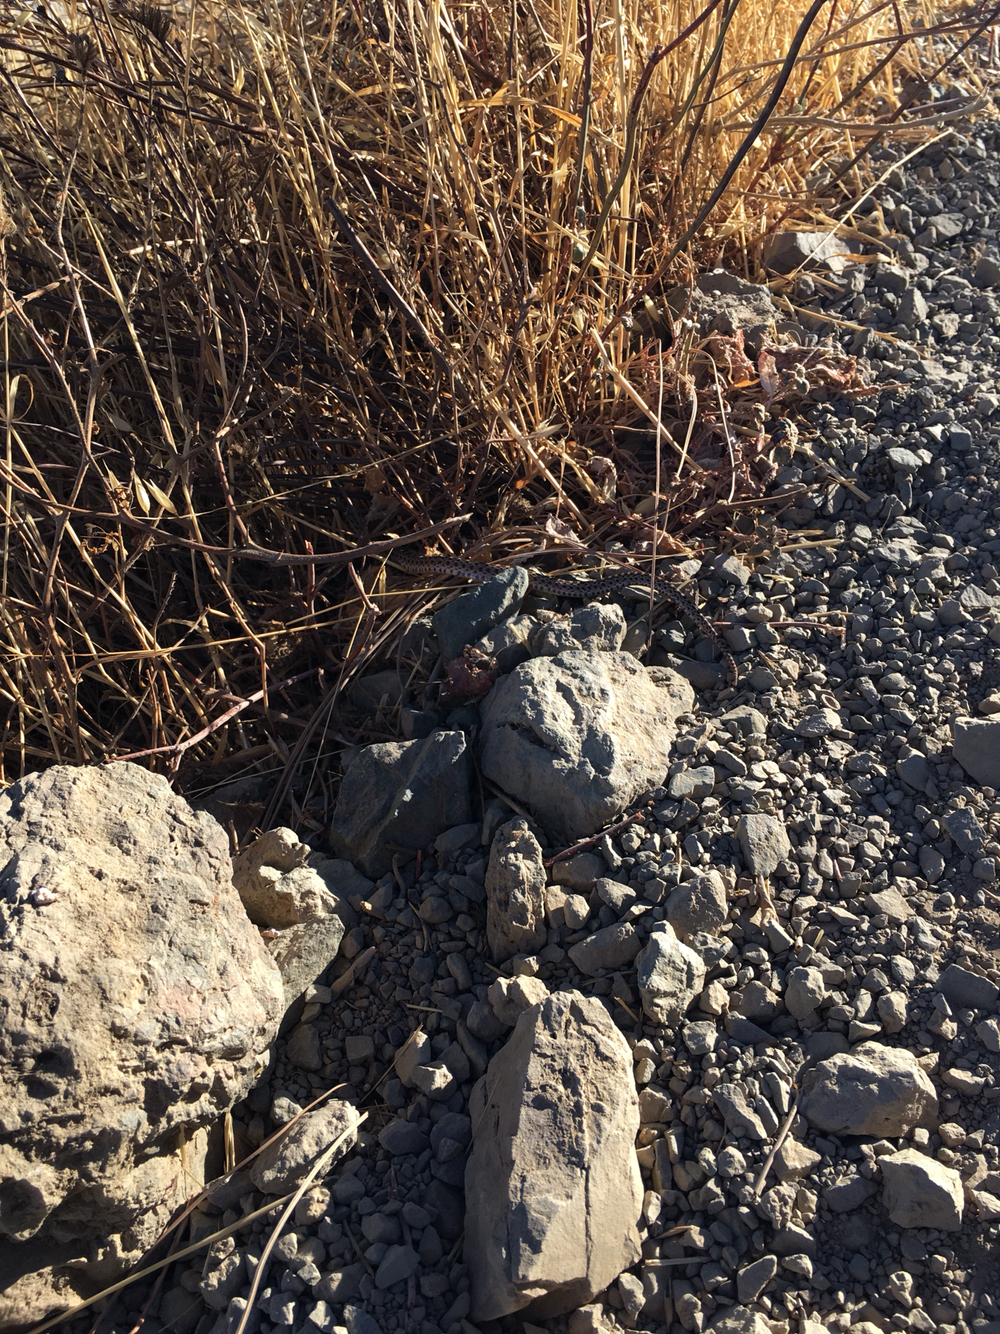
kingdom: Animalia
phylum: Chordata
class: Squamata
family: Colubridae
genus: Pituophis
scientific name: Pituophis catenifer
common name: Gopher snake
